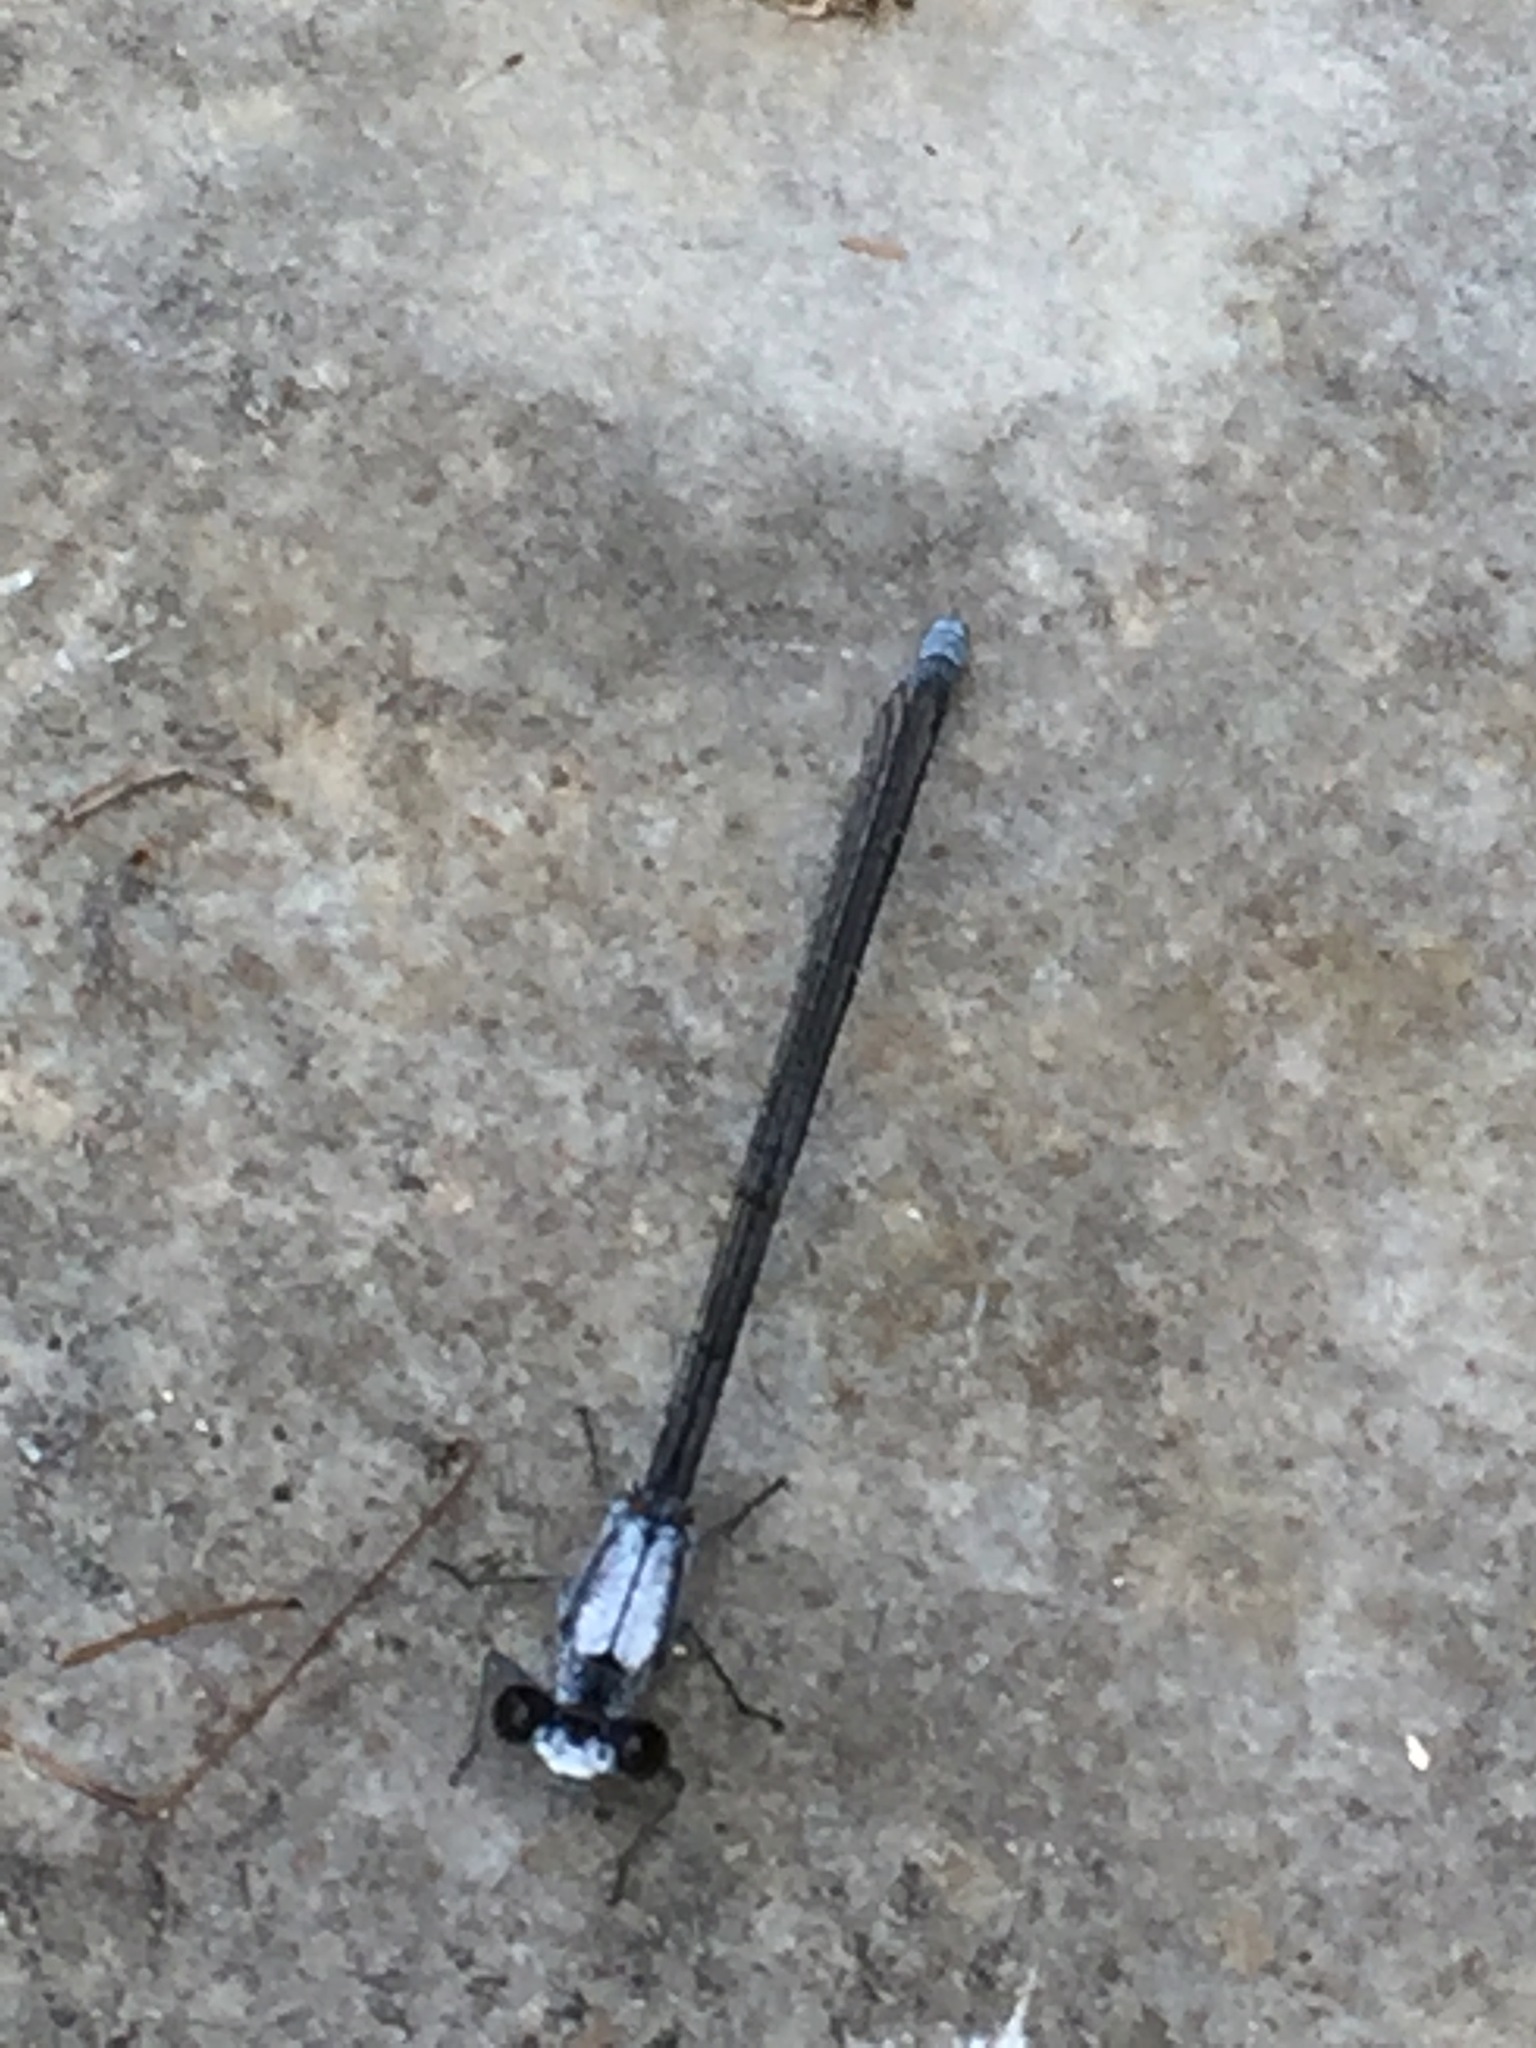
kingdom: Animalia
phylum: Arthropoda
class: Insecta
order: Odonata
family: Coenagrionidae
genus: Argia
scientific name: Argia moesta
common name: Powdered dancer
